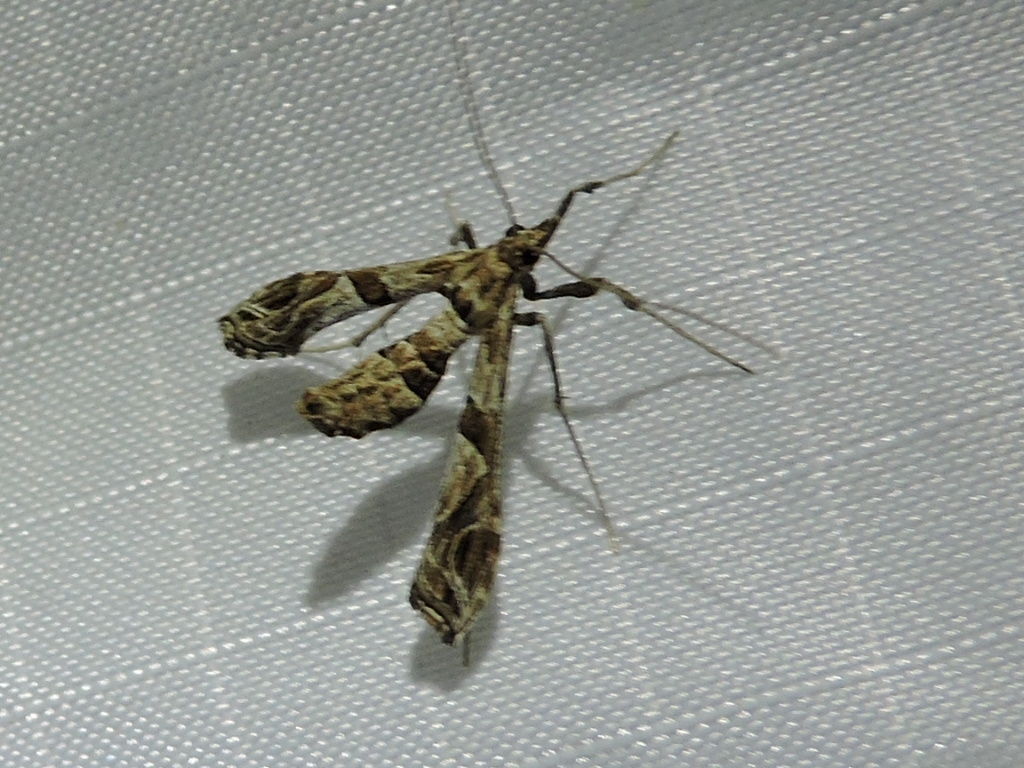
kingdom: Animalia
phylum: Arthropoda
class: Insecta
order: Lepidoptera
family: Crambidae
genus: Lineodes
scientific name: Lineodes interrupta
